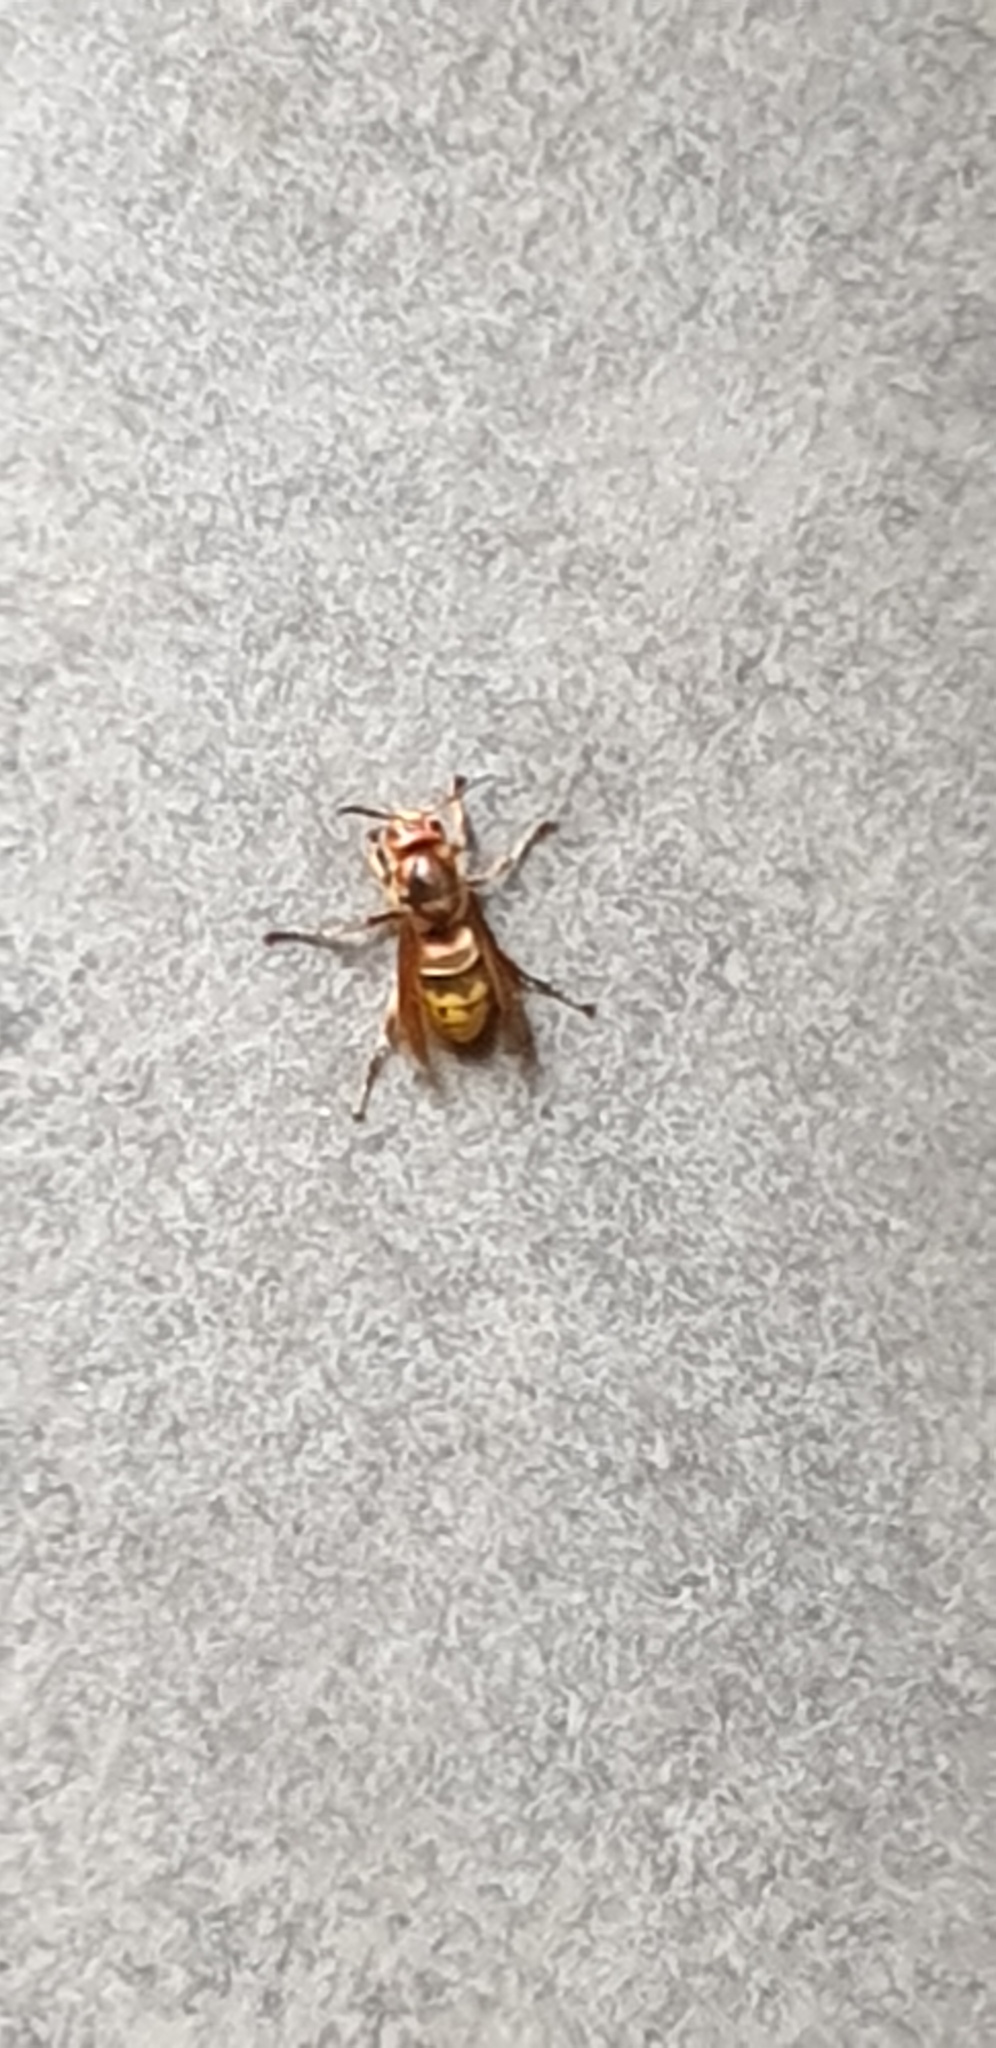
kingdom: Animalia
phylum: Arthropoda
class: Insecta
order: Hymenoptera
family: Vespidae
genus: Vespa
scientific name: Vespa crabro
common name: Hornet
